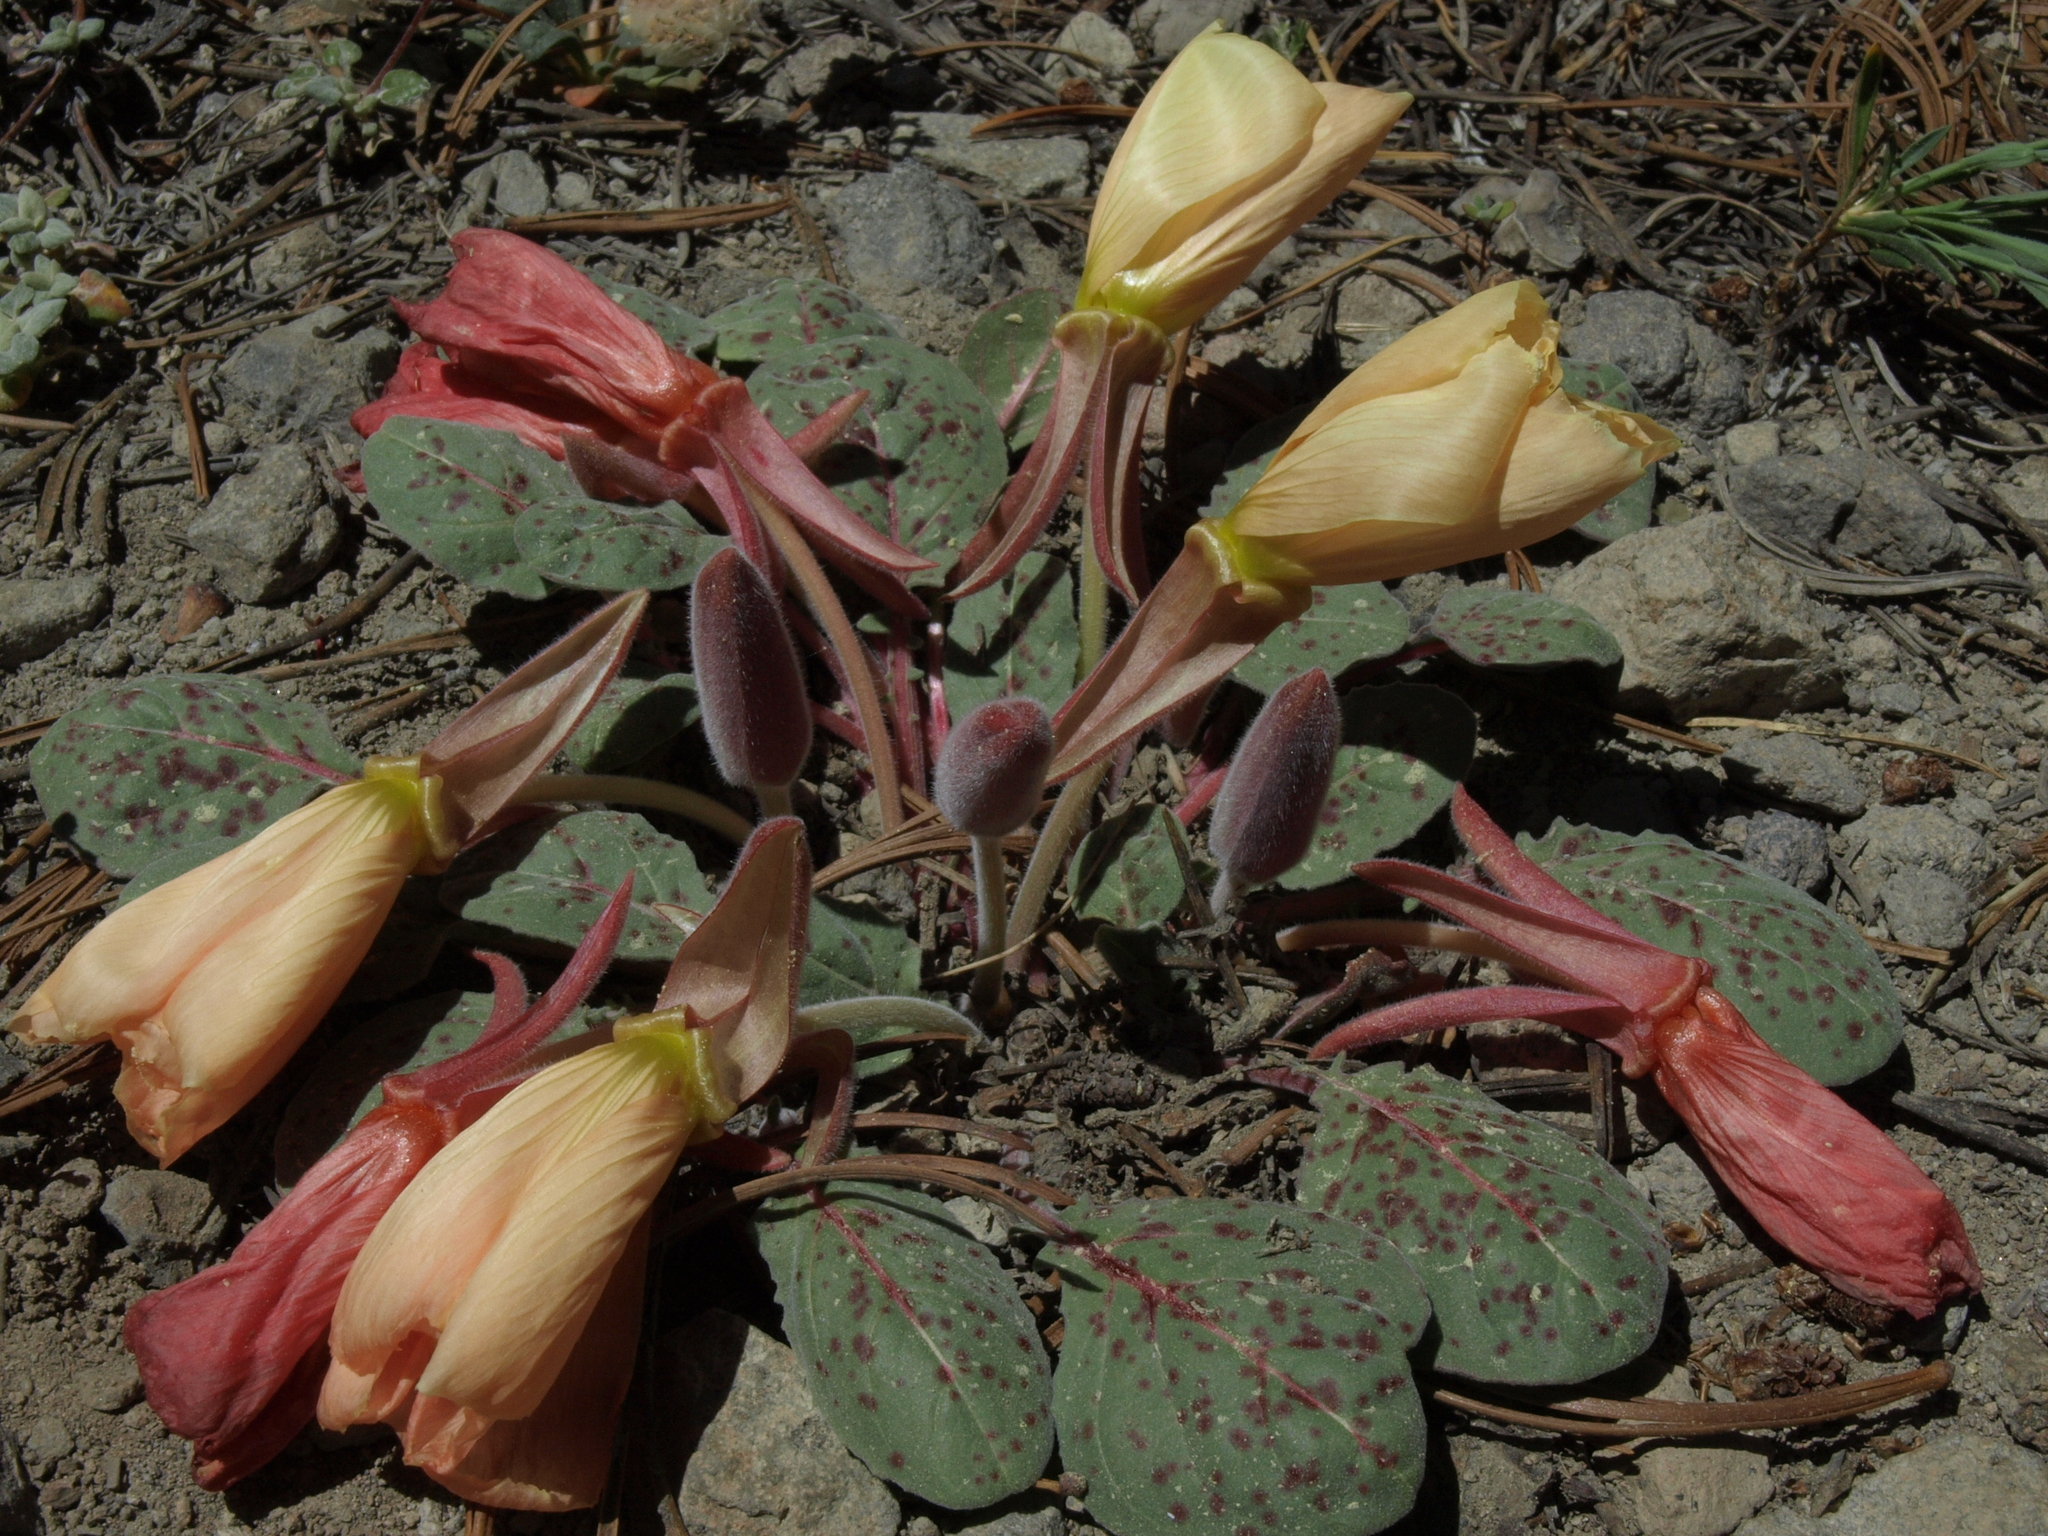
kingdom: Plantae
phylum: Tracheophyta
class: Magnoliopsida
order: Myrtales
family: Onagraceae
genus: Oenothera
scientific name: Oenothera xylocarpa
